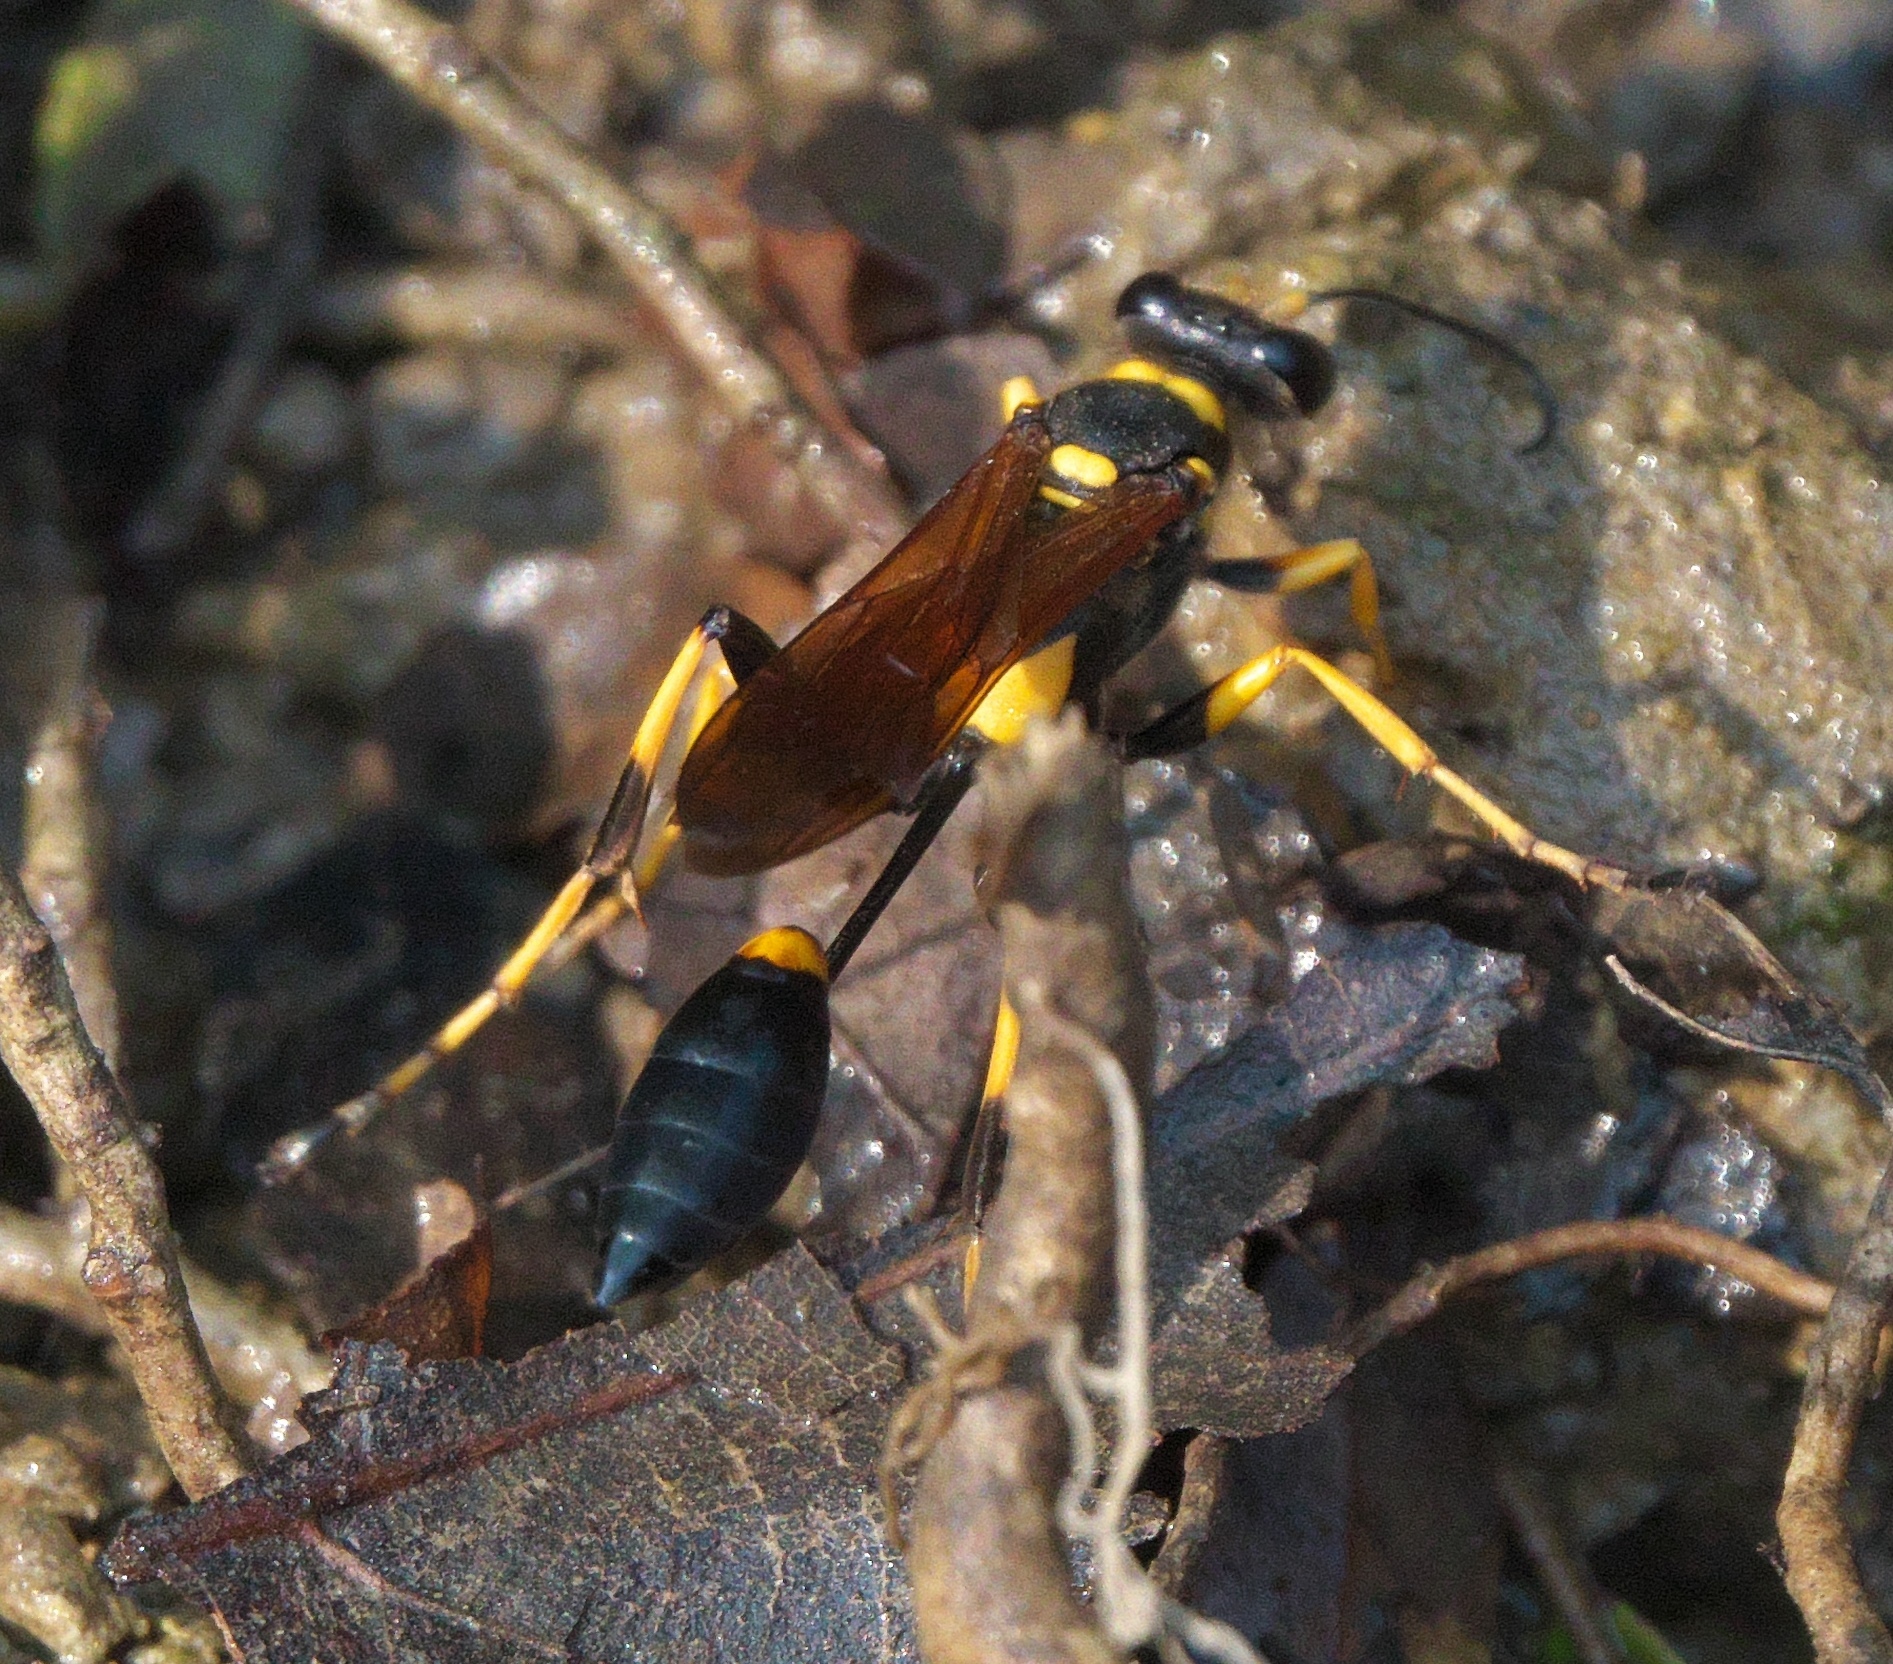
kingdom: Animalia
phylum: Arthropoda
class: Insecta
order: Hymenoptera
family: Sphecidae
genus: Sceliphron
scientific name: Sceliphron caementarium
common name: Mud dauber
